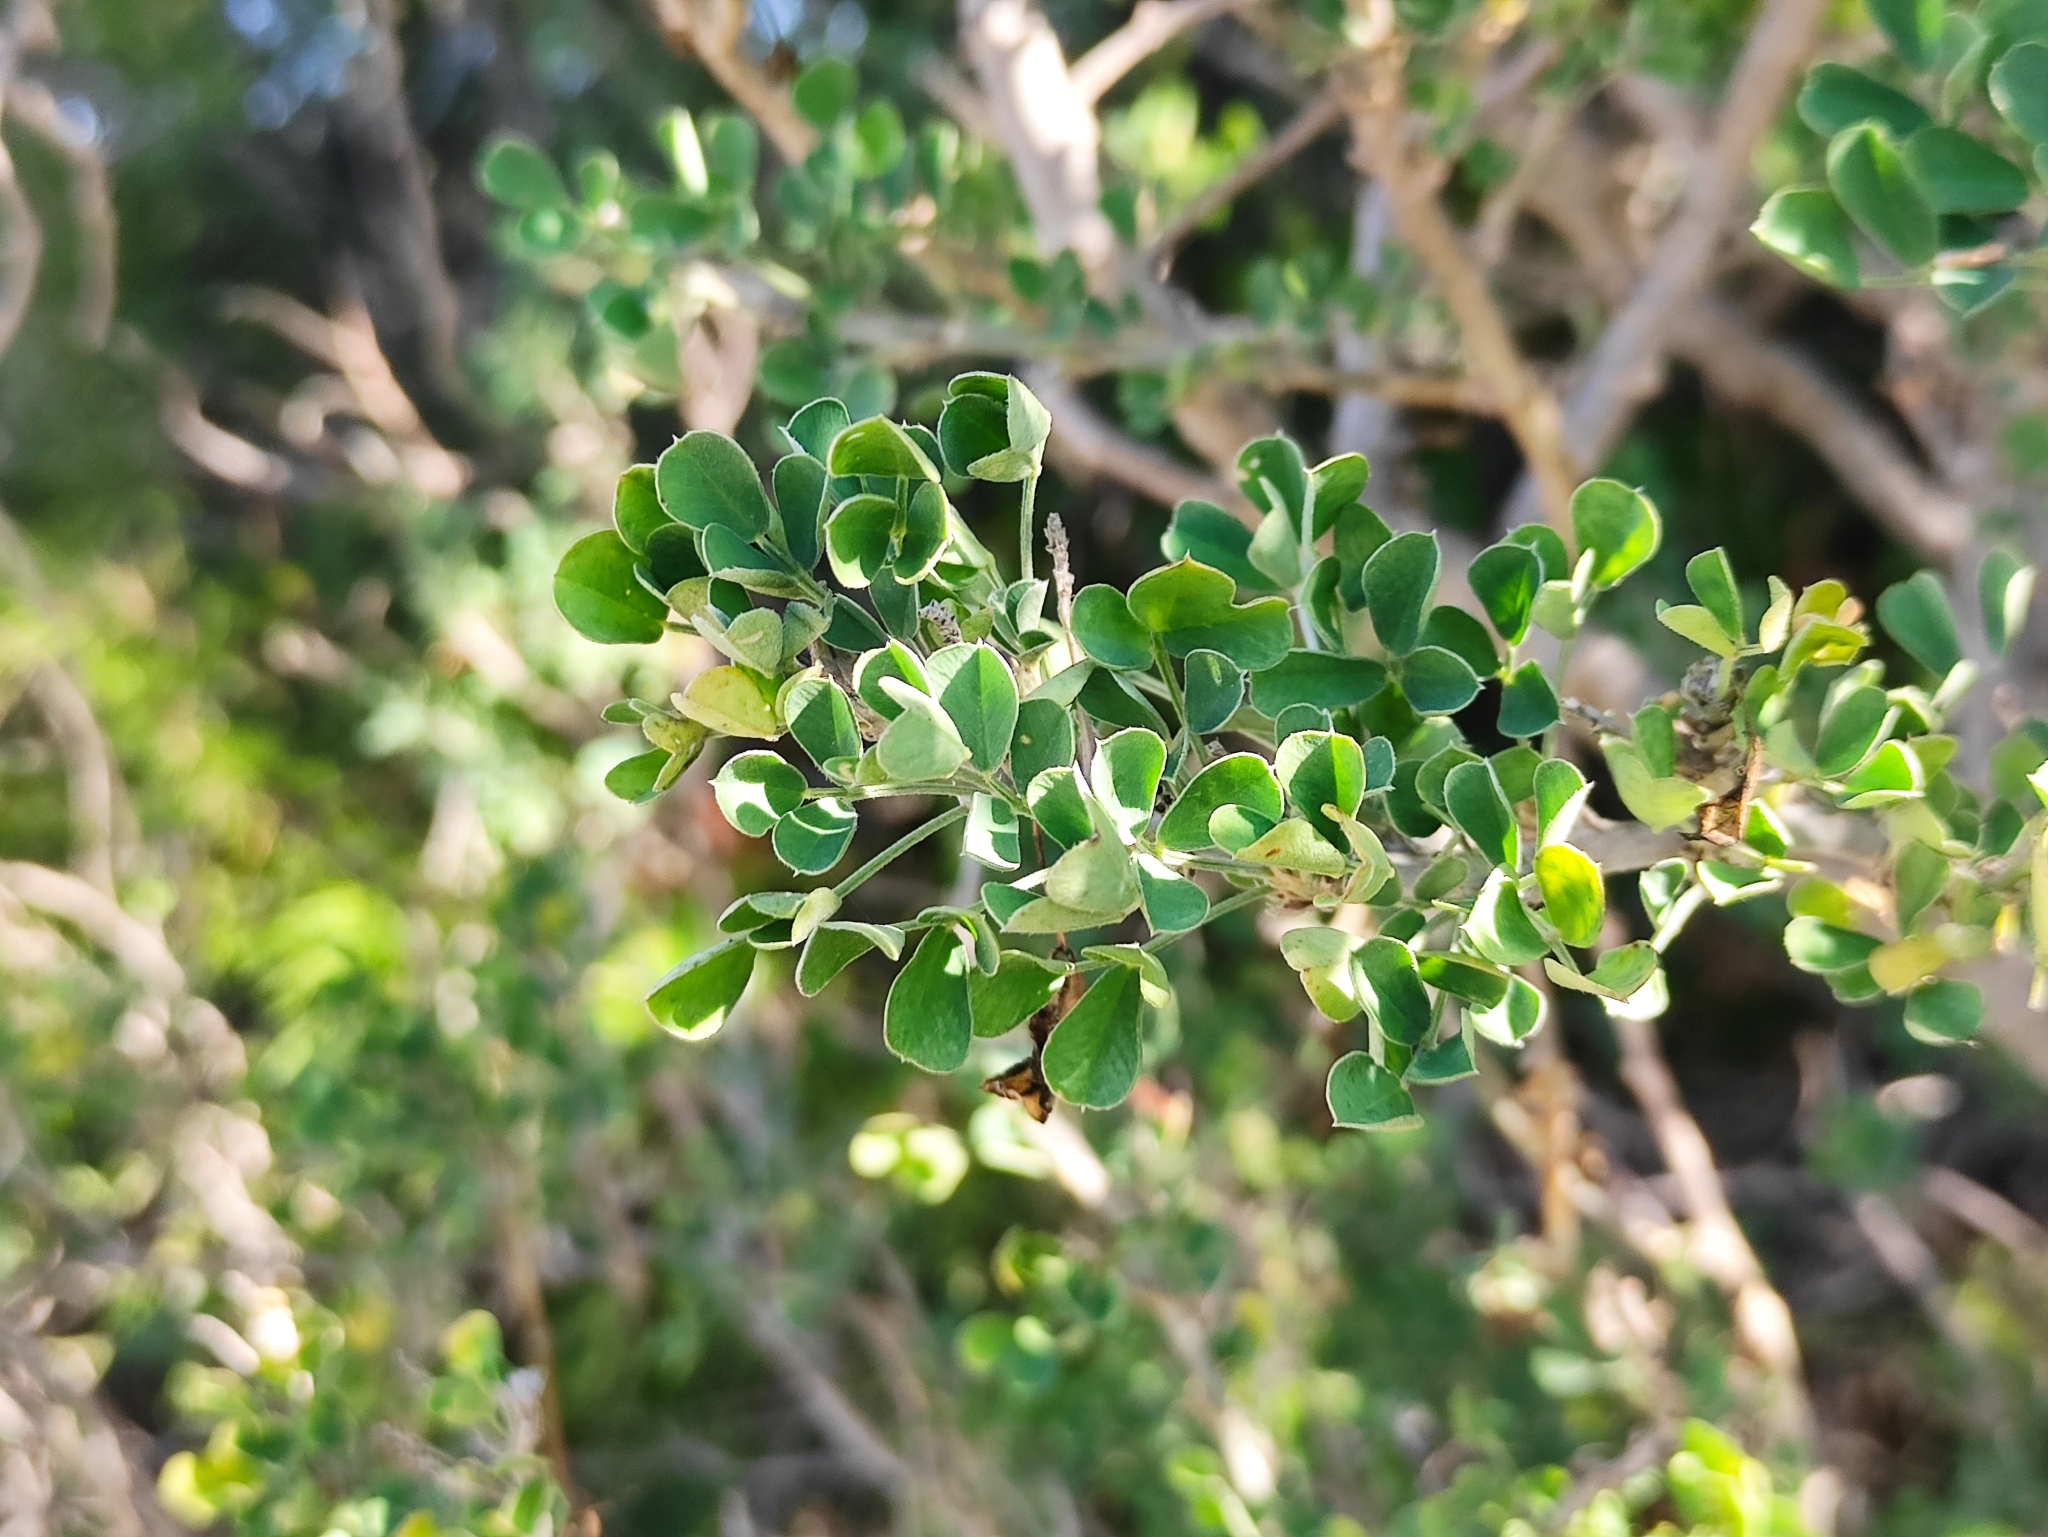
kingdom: Plantae
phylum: Tracheophyta
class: Magnoliopsida
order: Fabales
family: Fabaceae
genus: Medicago
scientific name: Medicago arborea
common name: Moon trefoil
